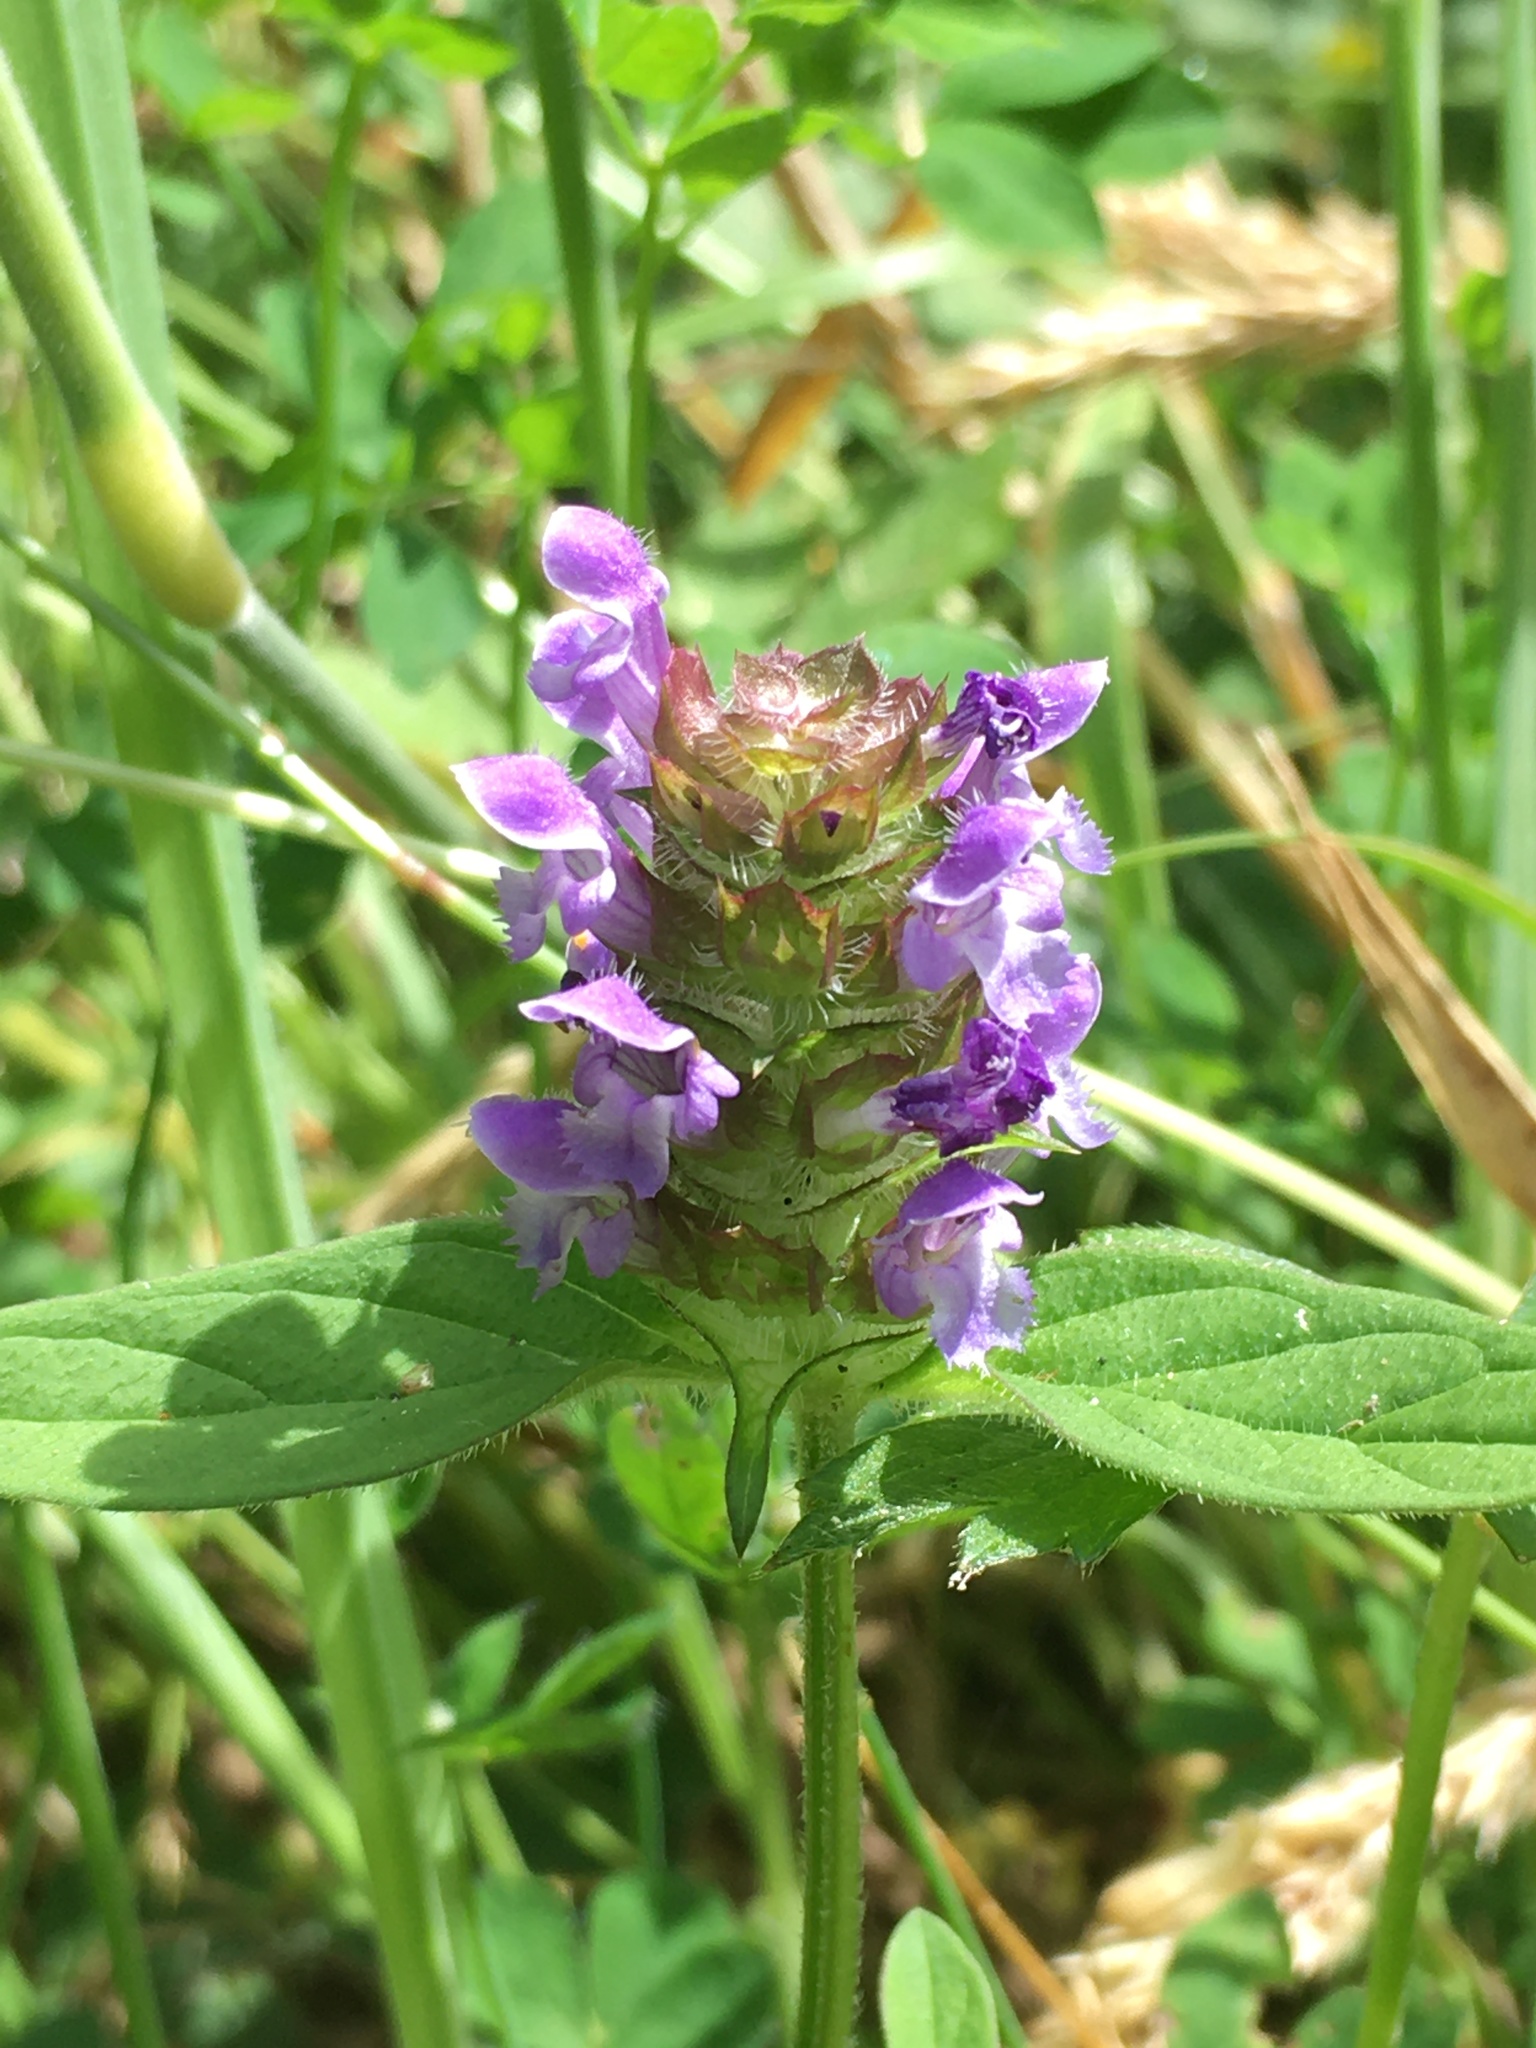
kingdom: Plantae
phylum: Tracheophyta
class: Magnoliopsida
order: Lamiales
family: Lamiaceae
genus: Prunella
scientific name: Prunella vulgaris
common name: Heal-all
